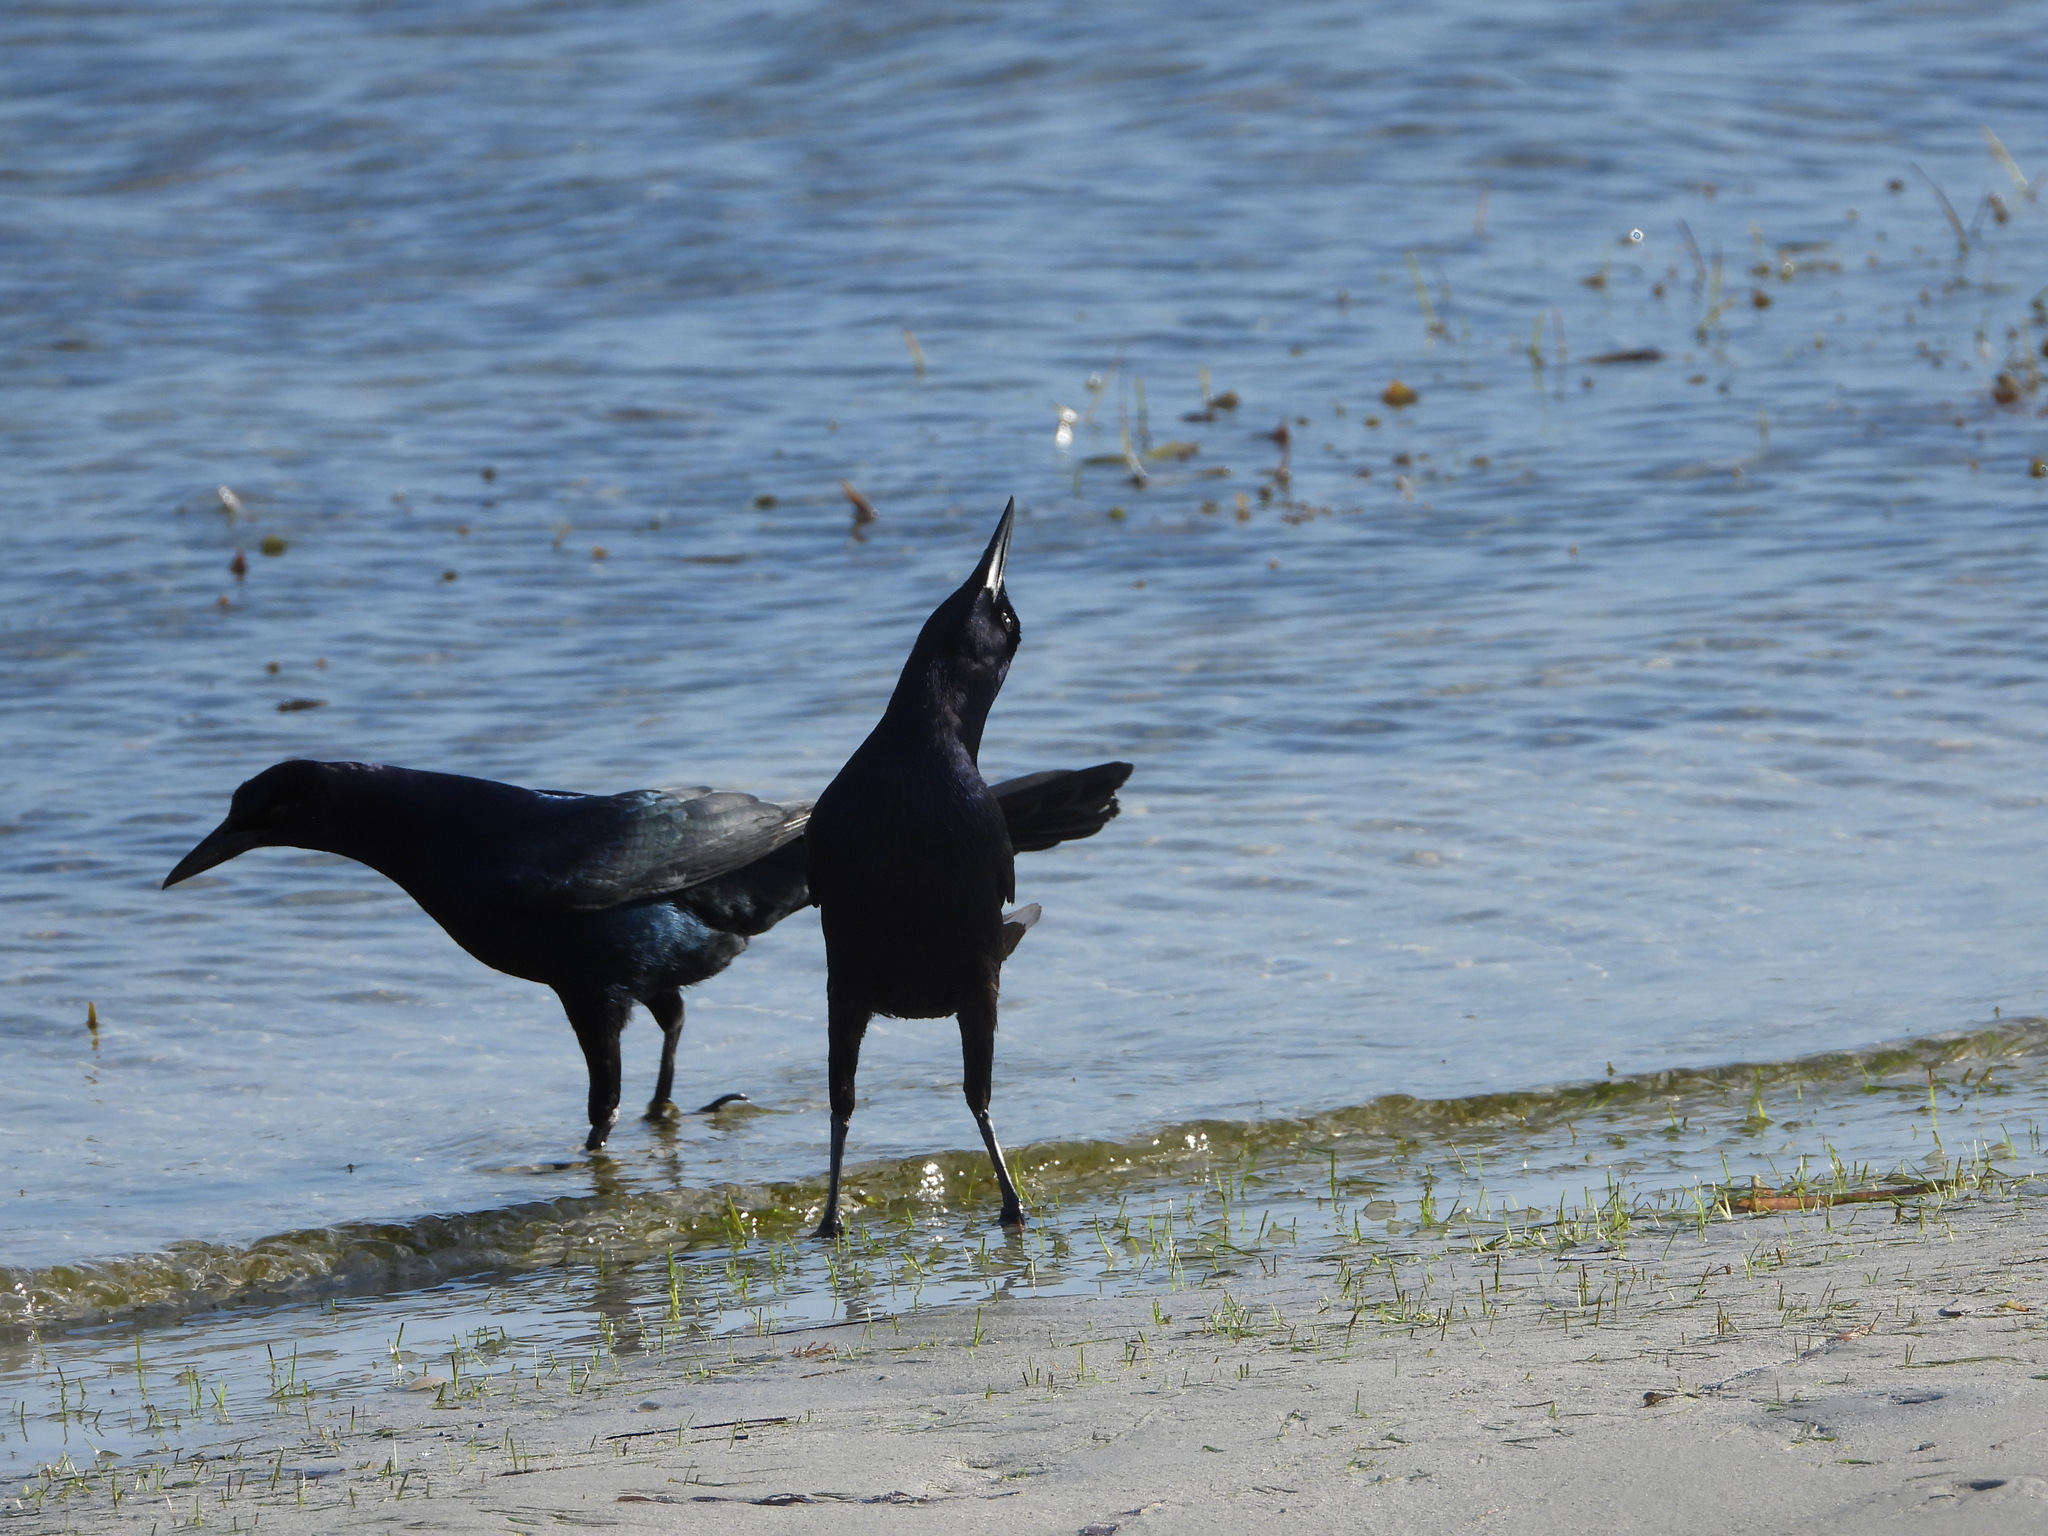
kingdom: Animalia
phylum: Chordata
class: Aves
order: Passeriformes
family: Icteridae
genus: Quiscalus
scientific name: Quiscalus major
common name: Boat-tailed grackle
